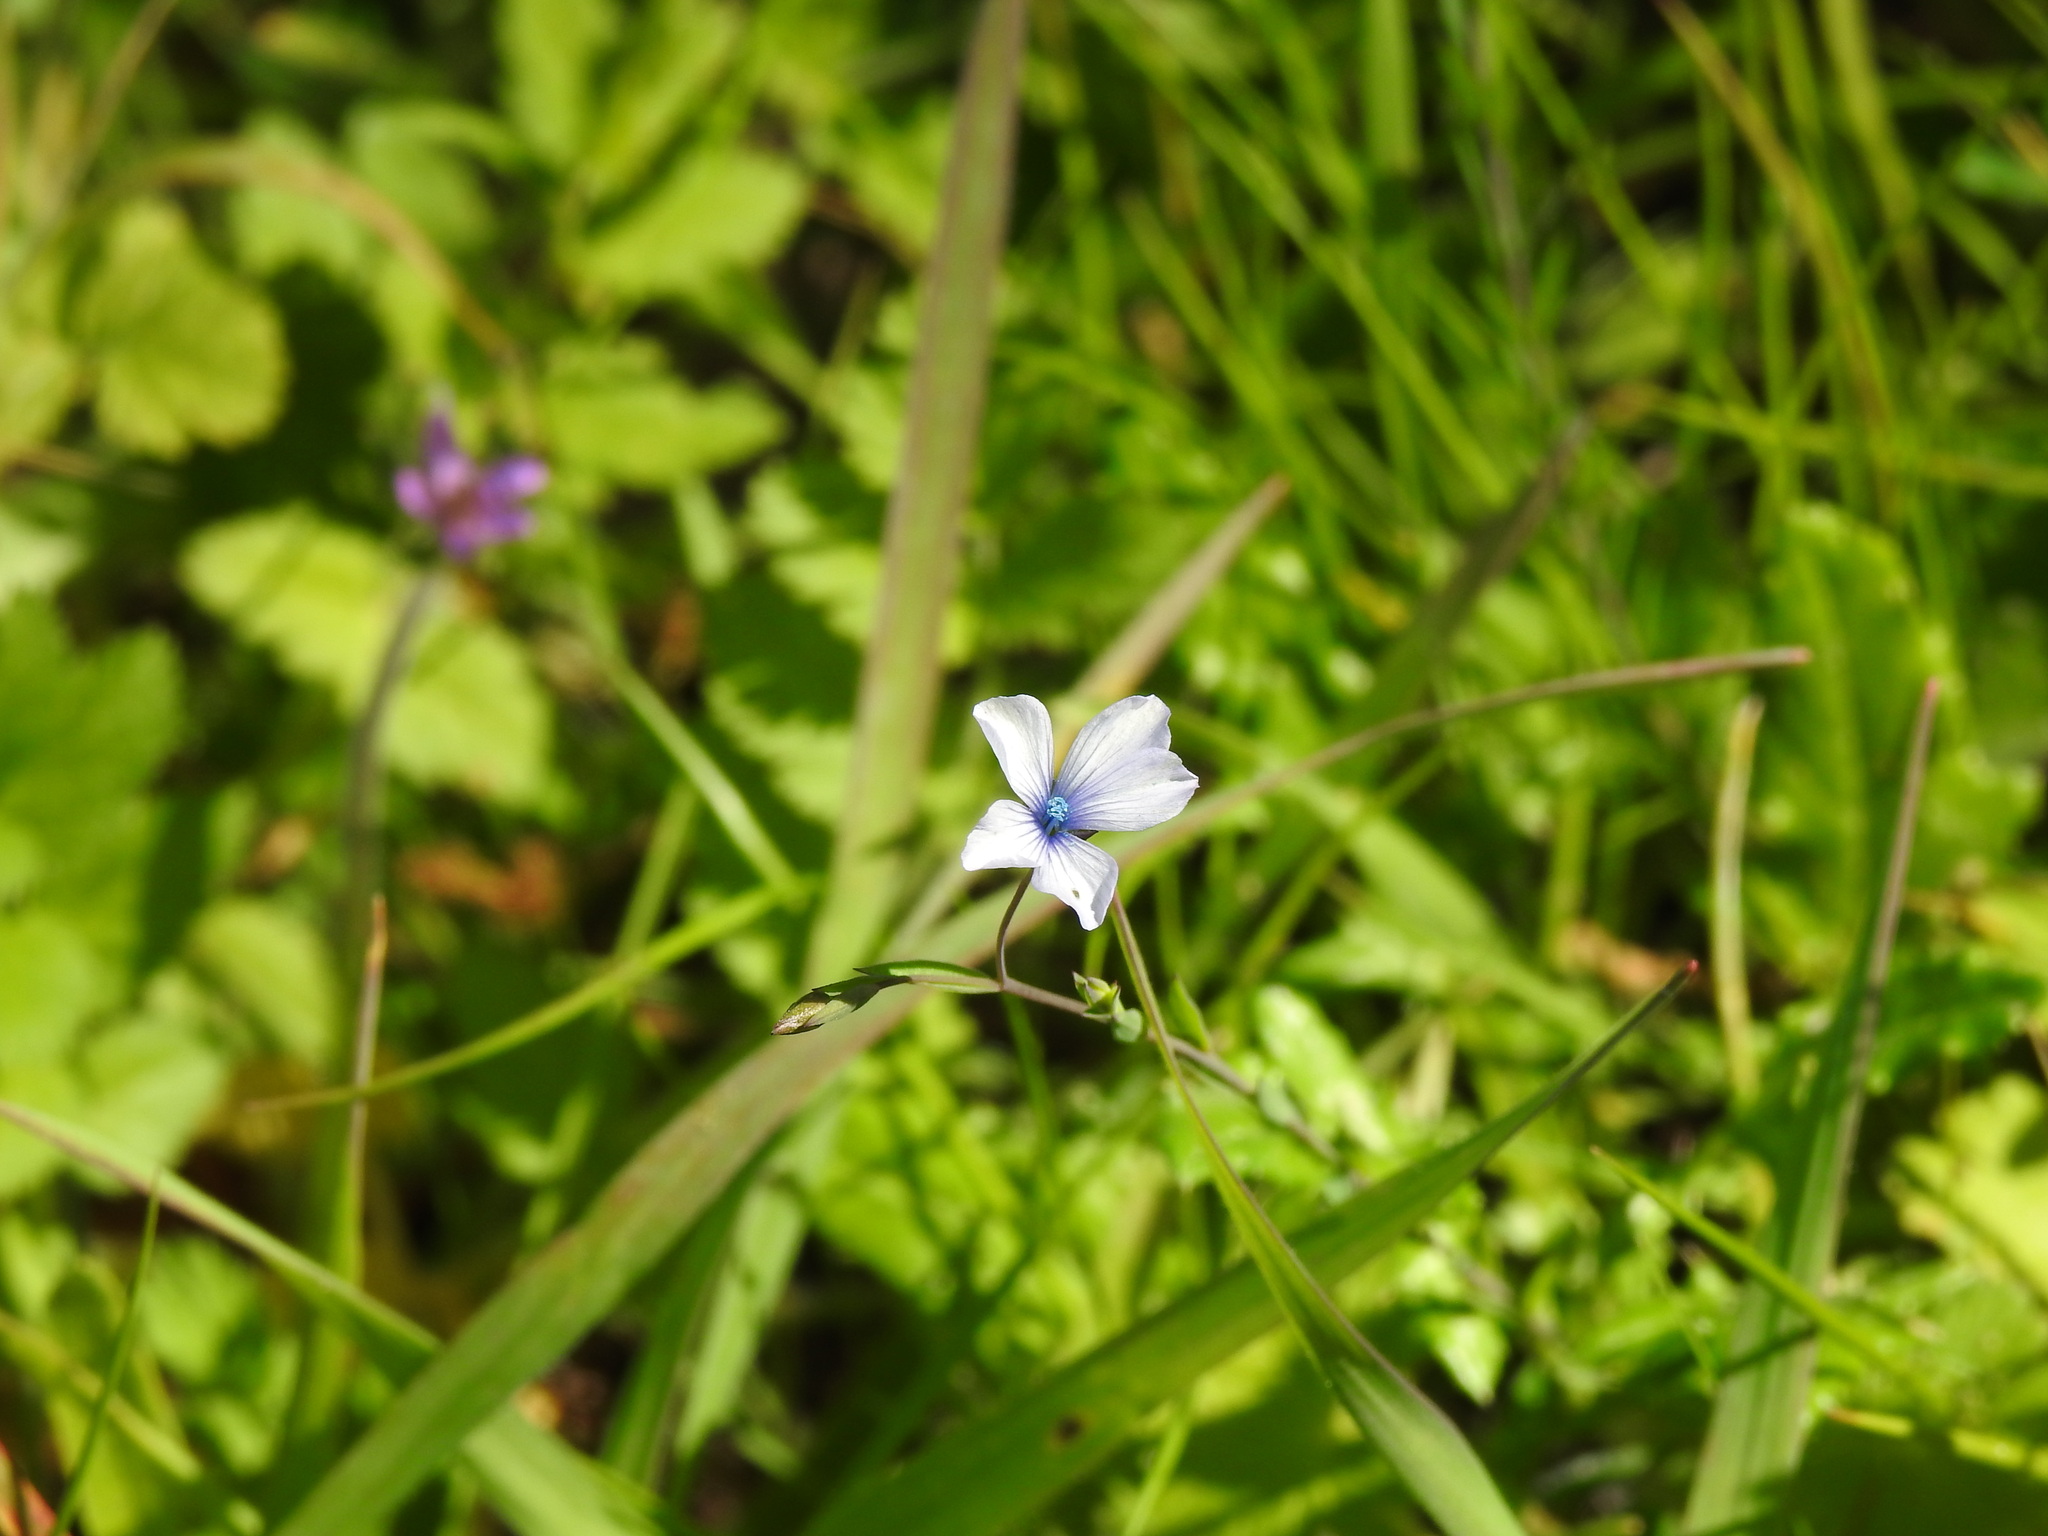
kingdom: Plantae
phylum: Tracheophyta
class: Magnoliopsida
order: Malpighiales
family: Linaceae
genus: Linum
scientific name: Linum bienne
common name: Pale flax
